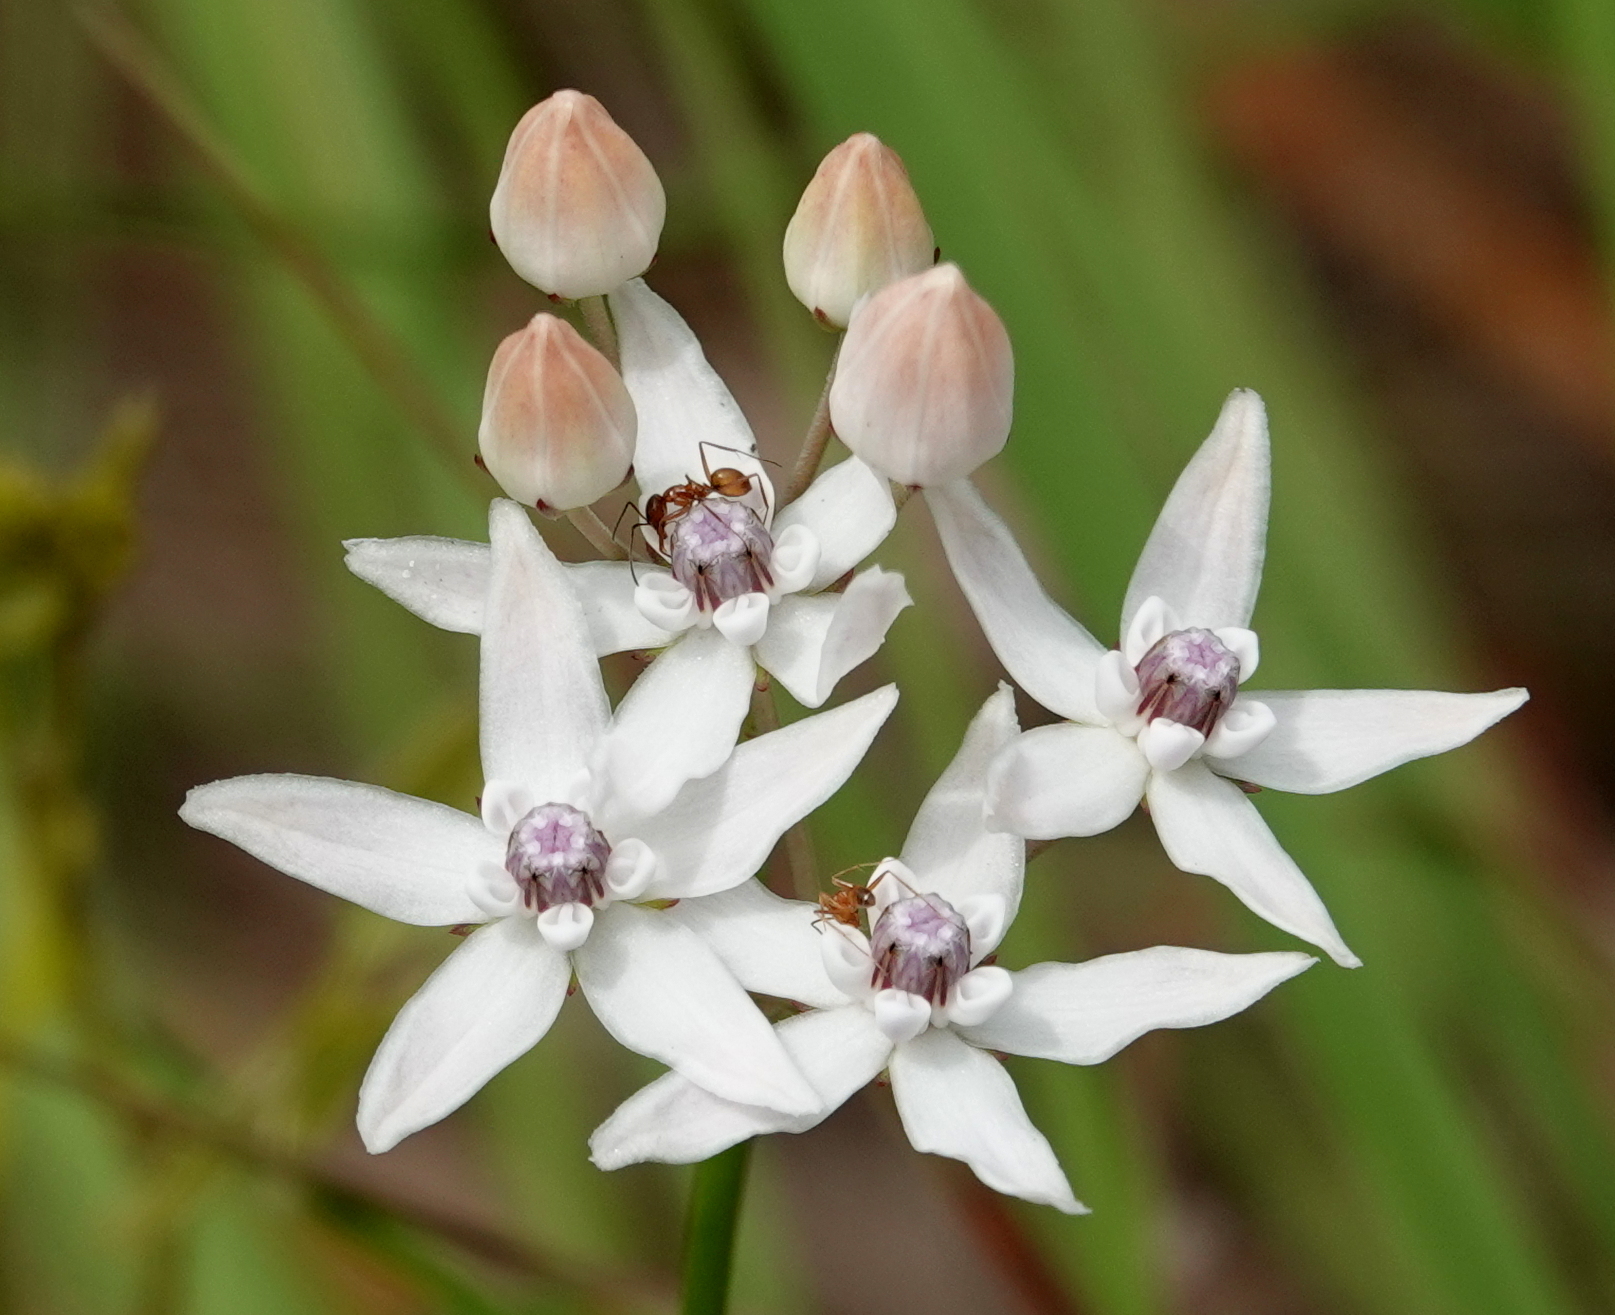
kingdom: Plantae
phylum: Tracheophyta
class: Magnoliopsida
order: Gentianales
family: Apocynaceae
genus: Asclepias
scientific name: Asclepias feayi
